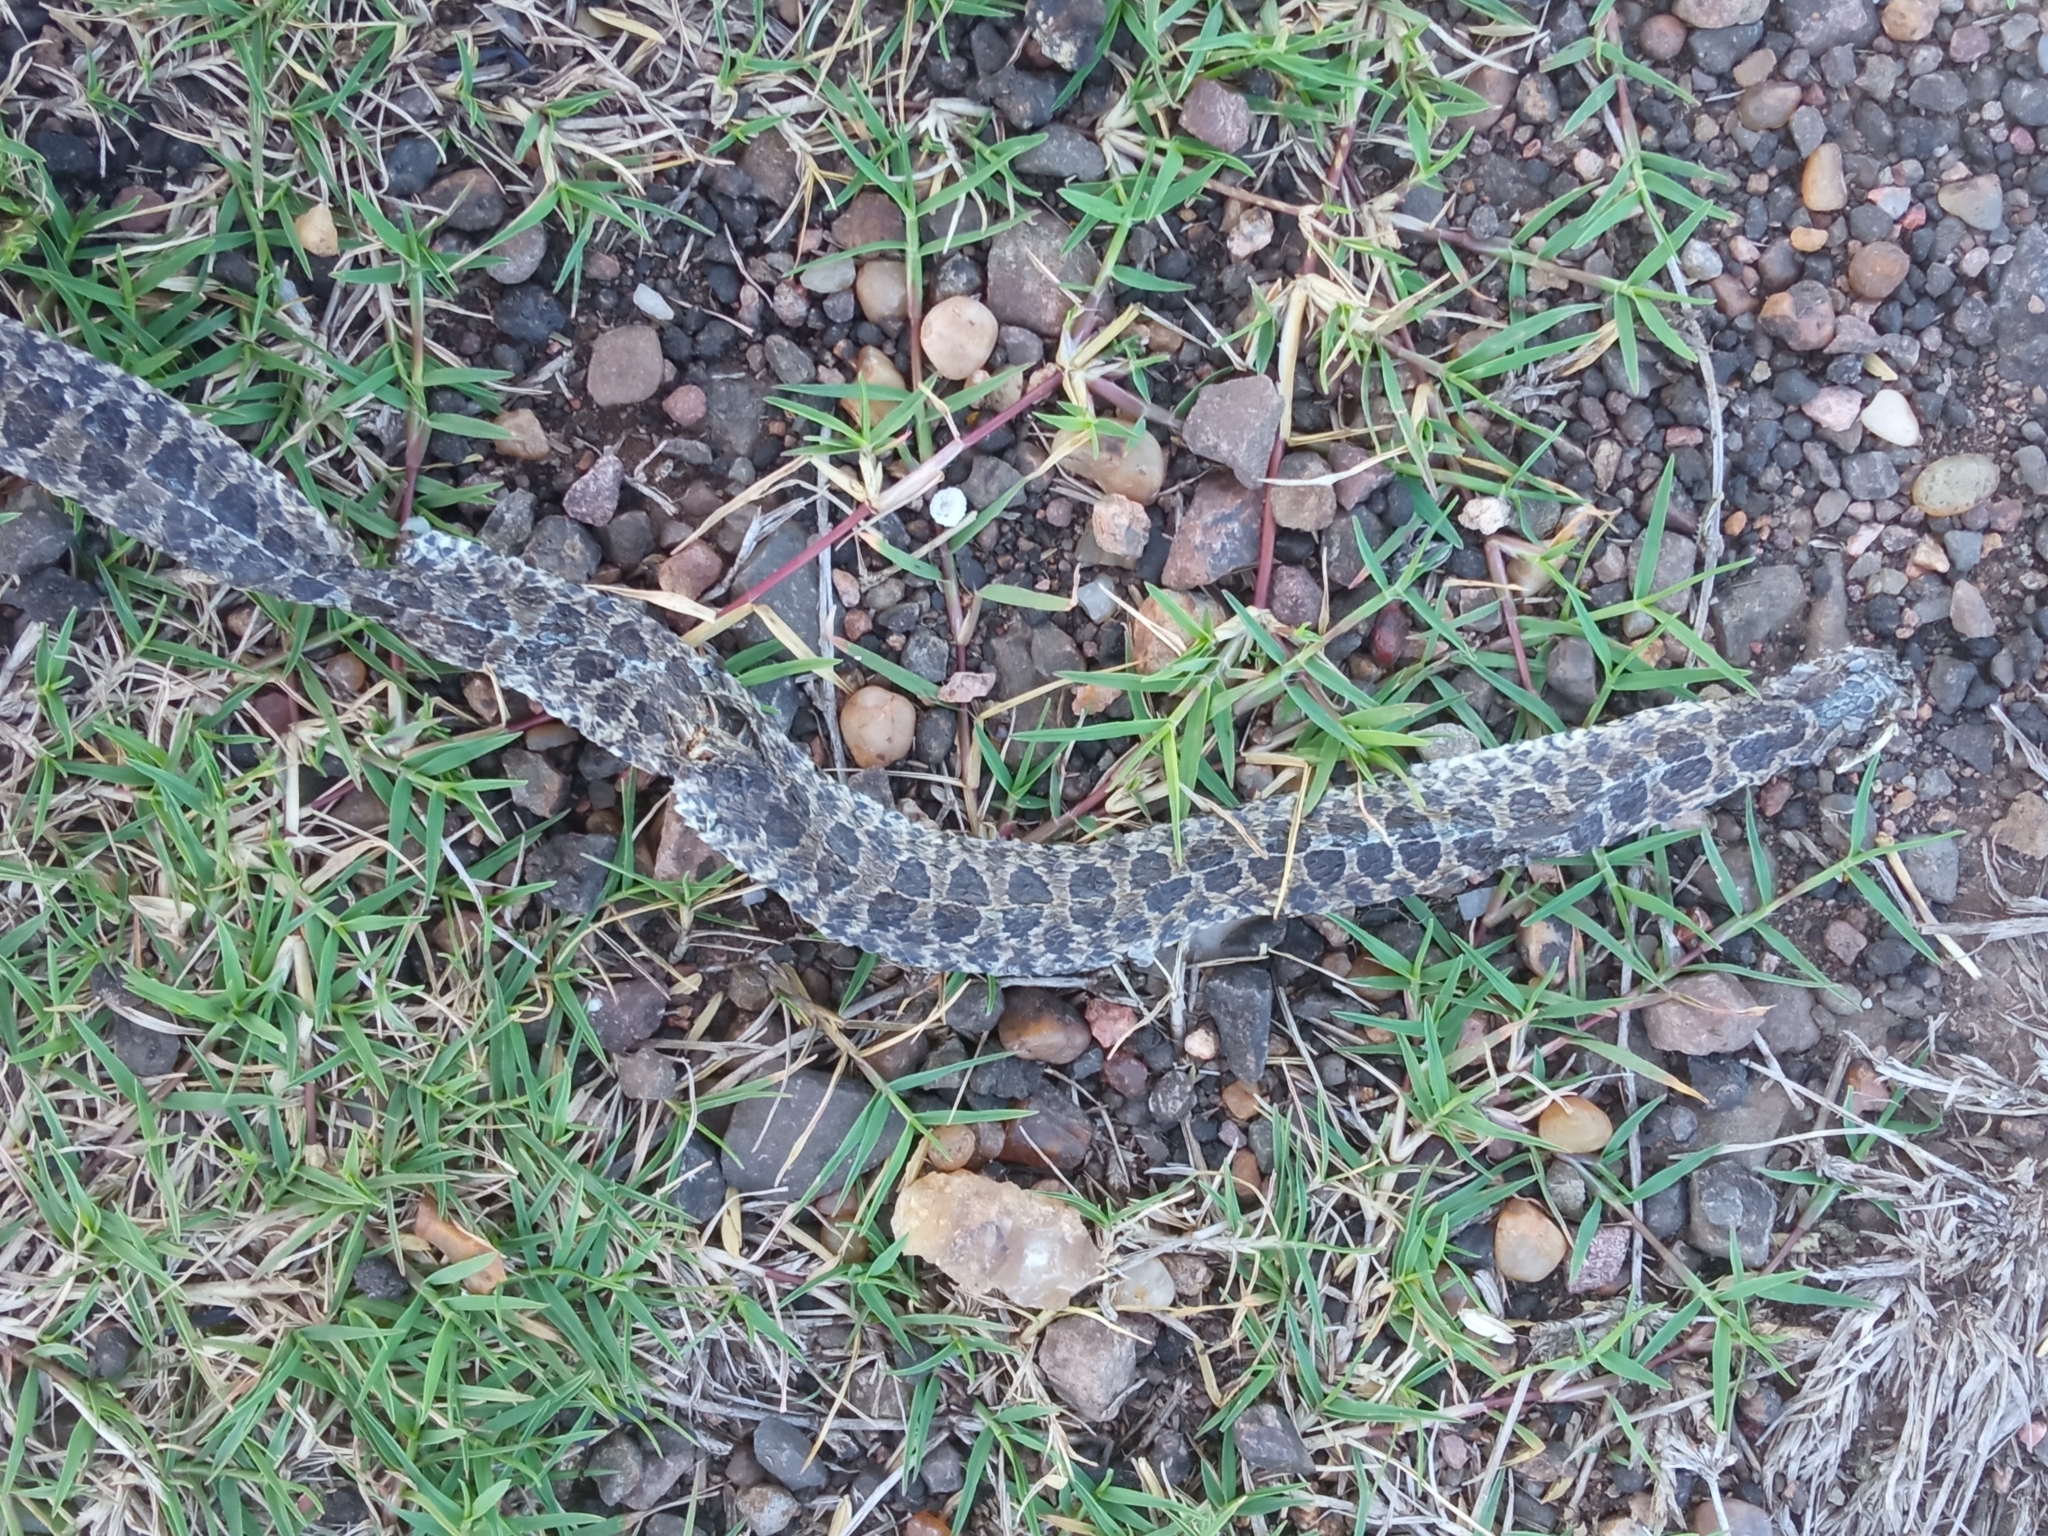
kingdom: Animalia
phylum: Chordata
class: Squamata
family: Colubridae
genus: Tachymenis
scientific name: Tachymenis
